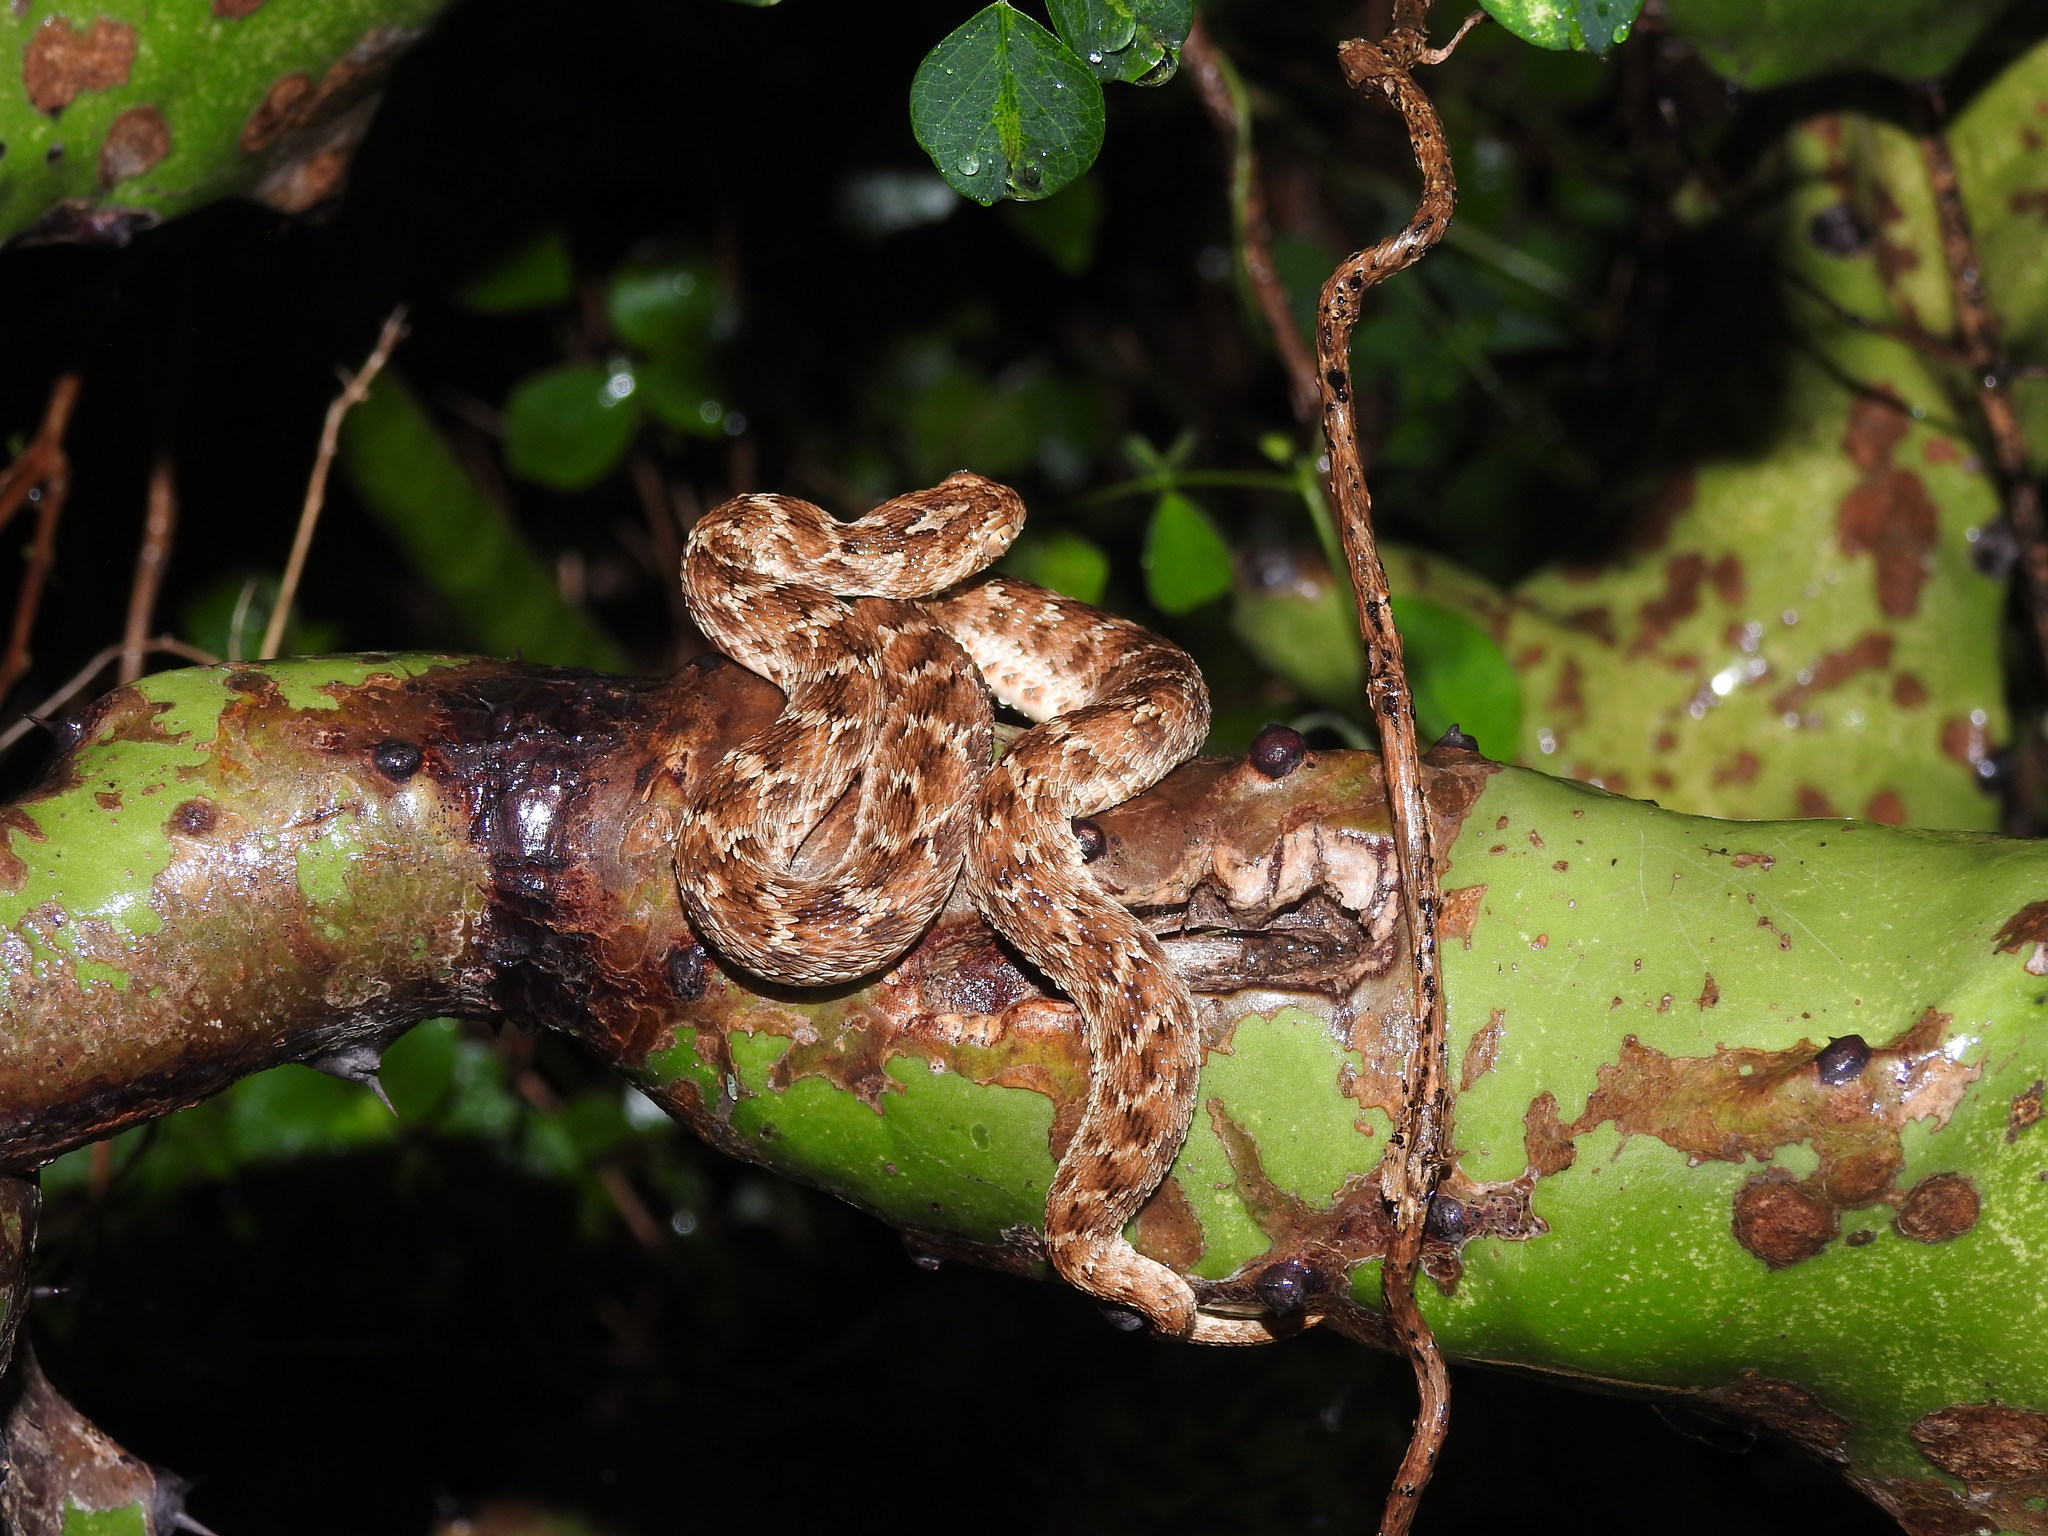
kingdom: Animalia
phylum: Chordata
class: Squamata
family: Viperidae
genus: Echis
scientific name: Echis carinatus
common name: Saw-scaled viper
